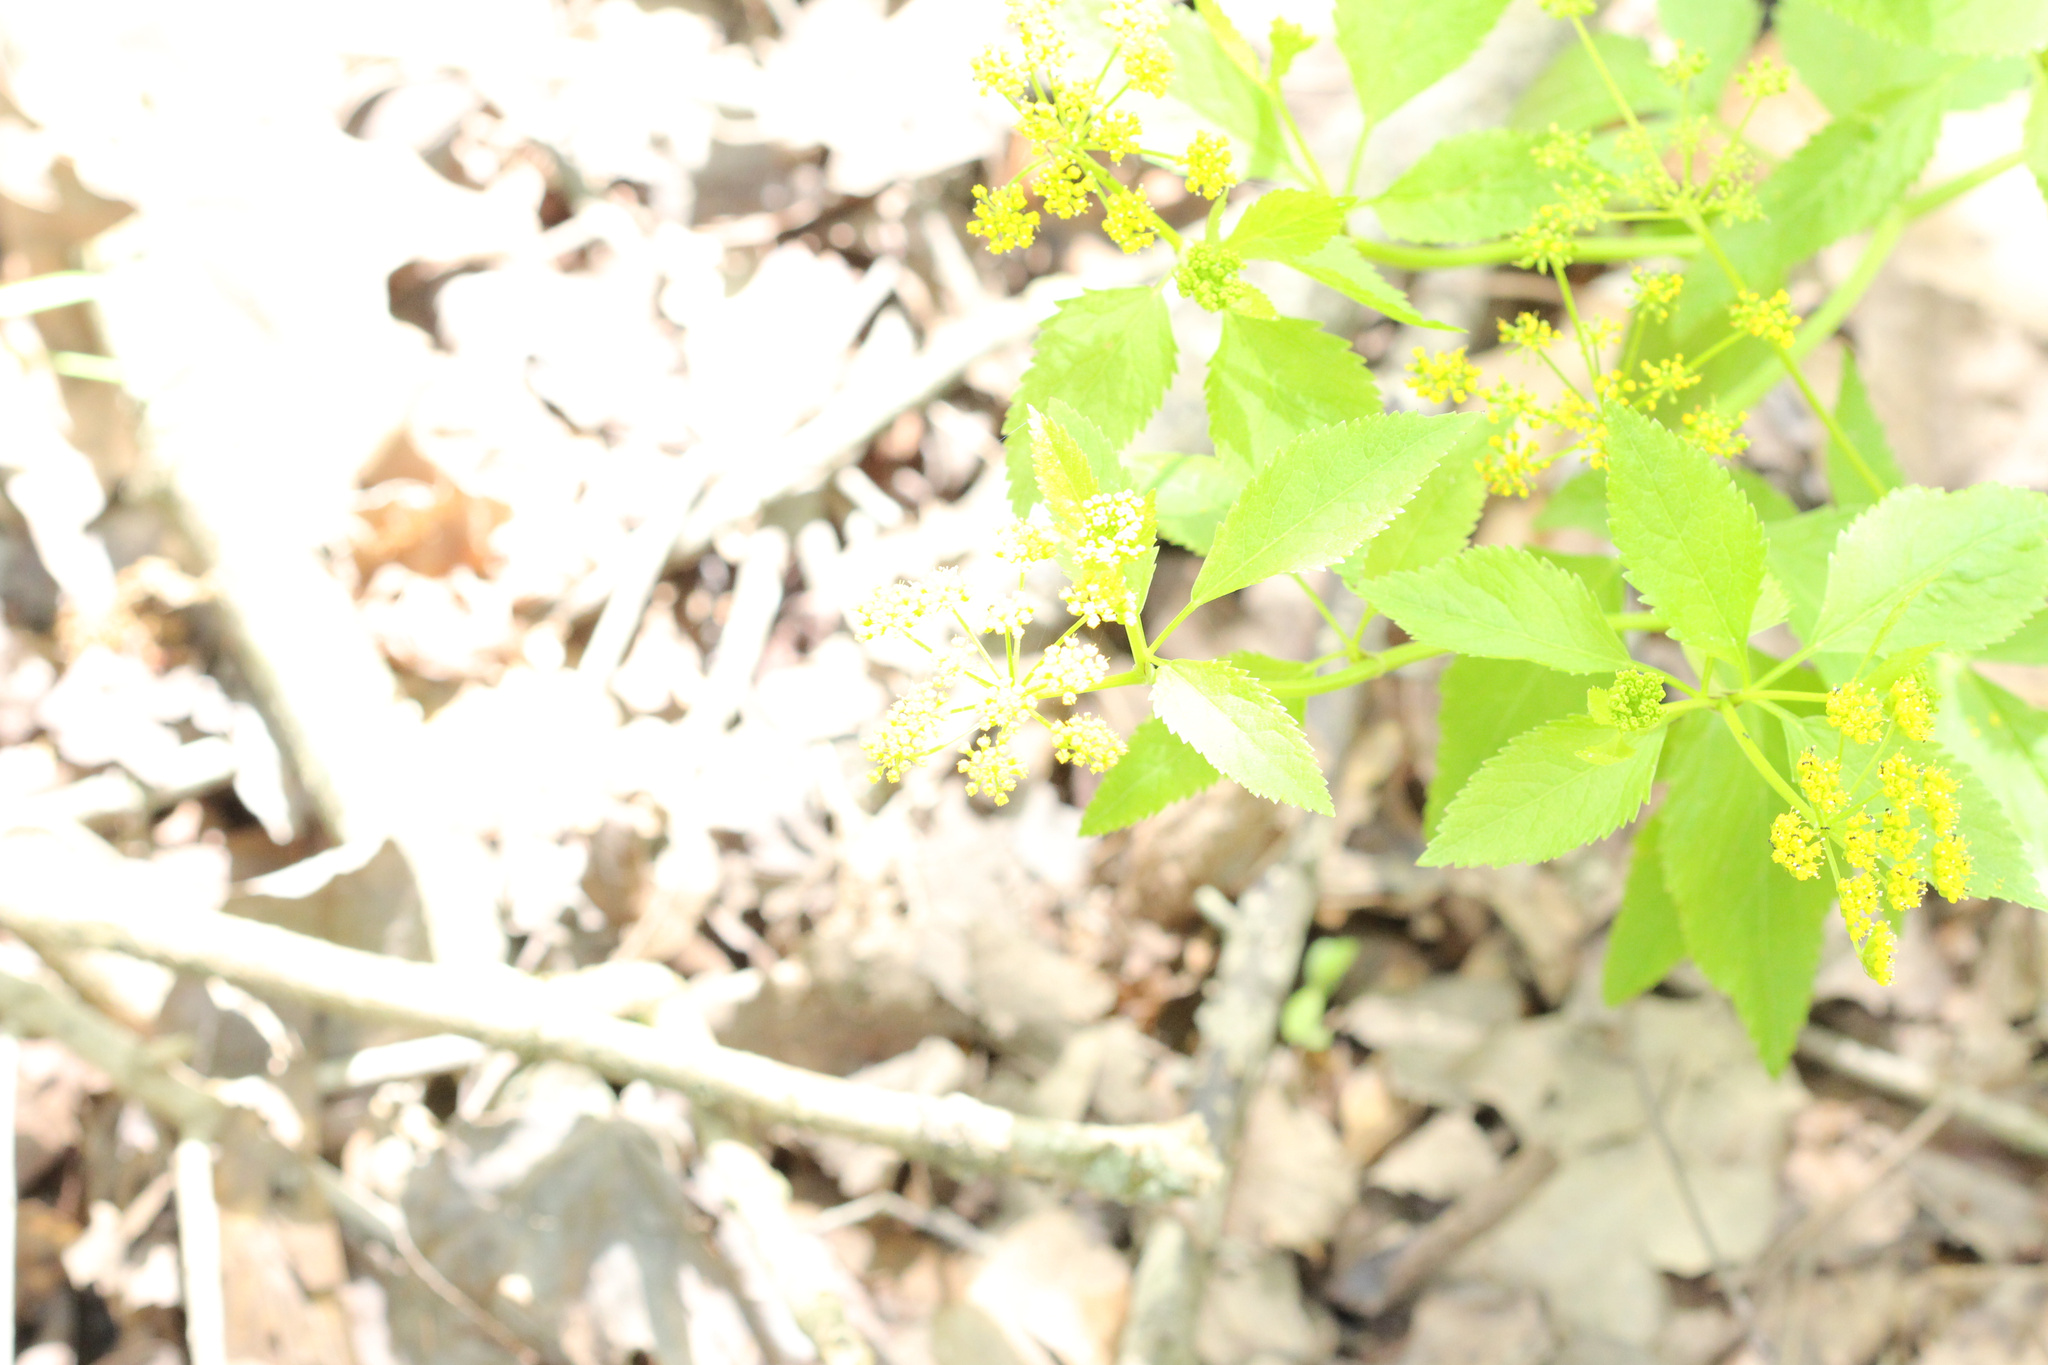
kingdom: Plantae
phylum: Tracheophyta
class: Magnoliopsida
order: Apiales
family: Apiaceae
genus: Zizia
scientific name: Zizia aurea
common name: Golden alexanders
